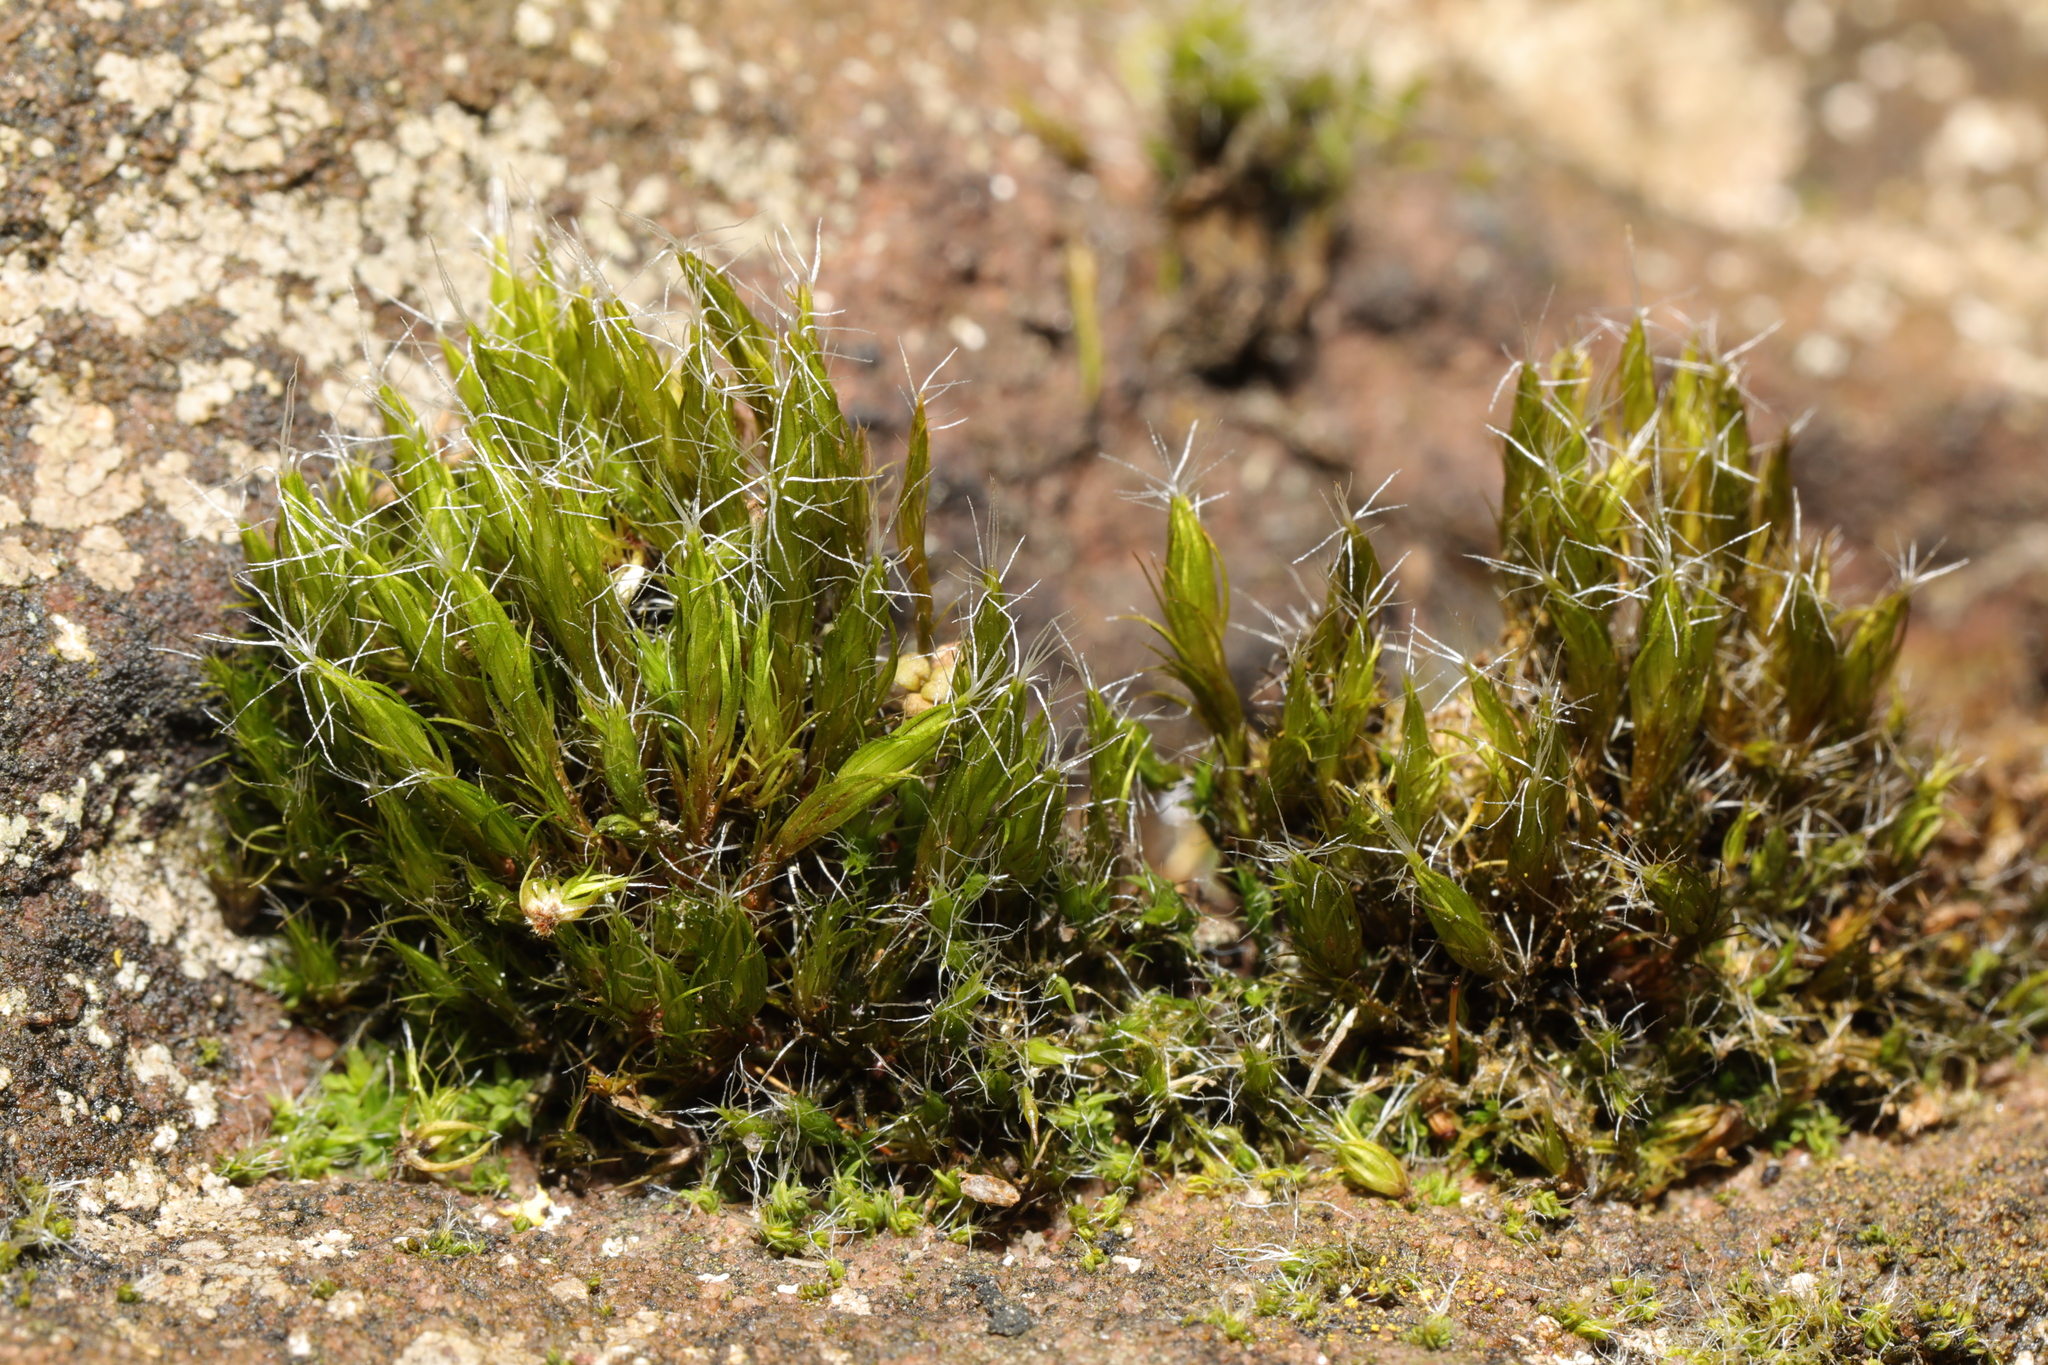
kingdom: Plantae
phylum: Bryophyta
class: Bryopsida
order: Dicranales
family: Leucobryaceae
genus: Campylopus
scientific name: Campylopus introflexus
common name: Heath star moss
